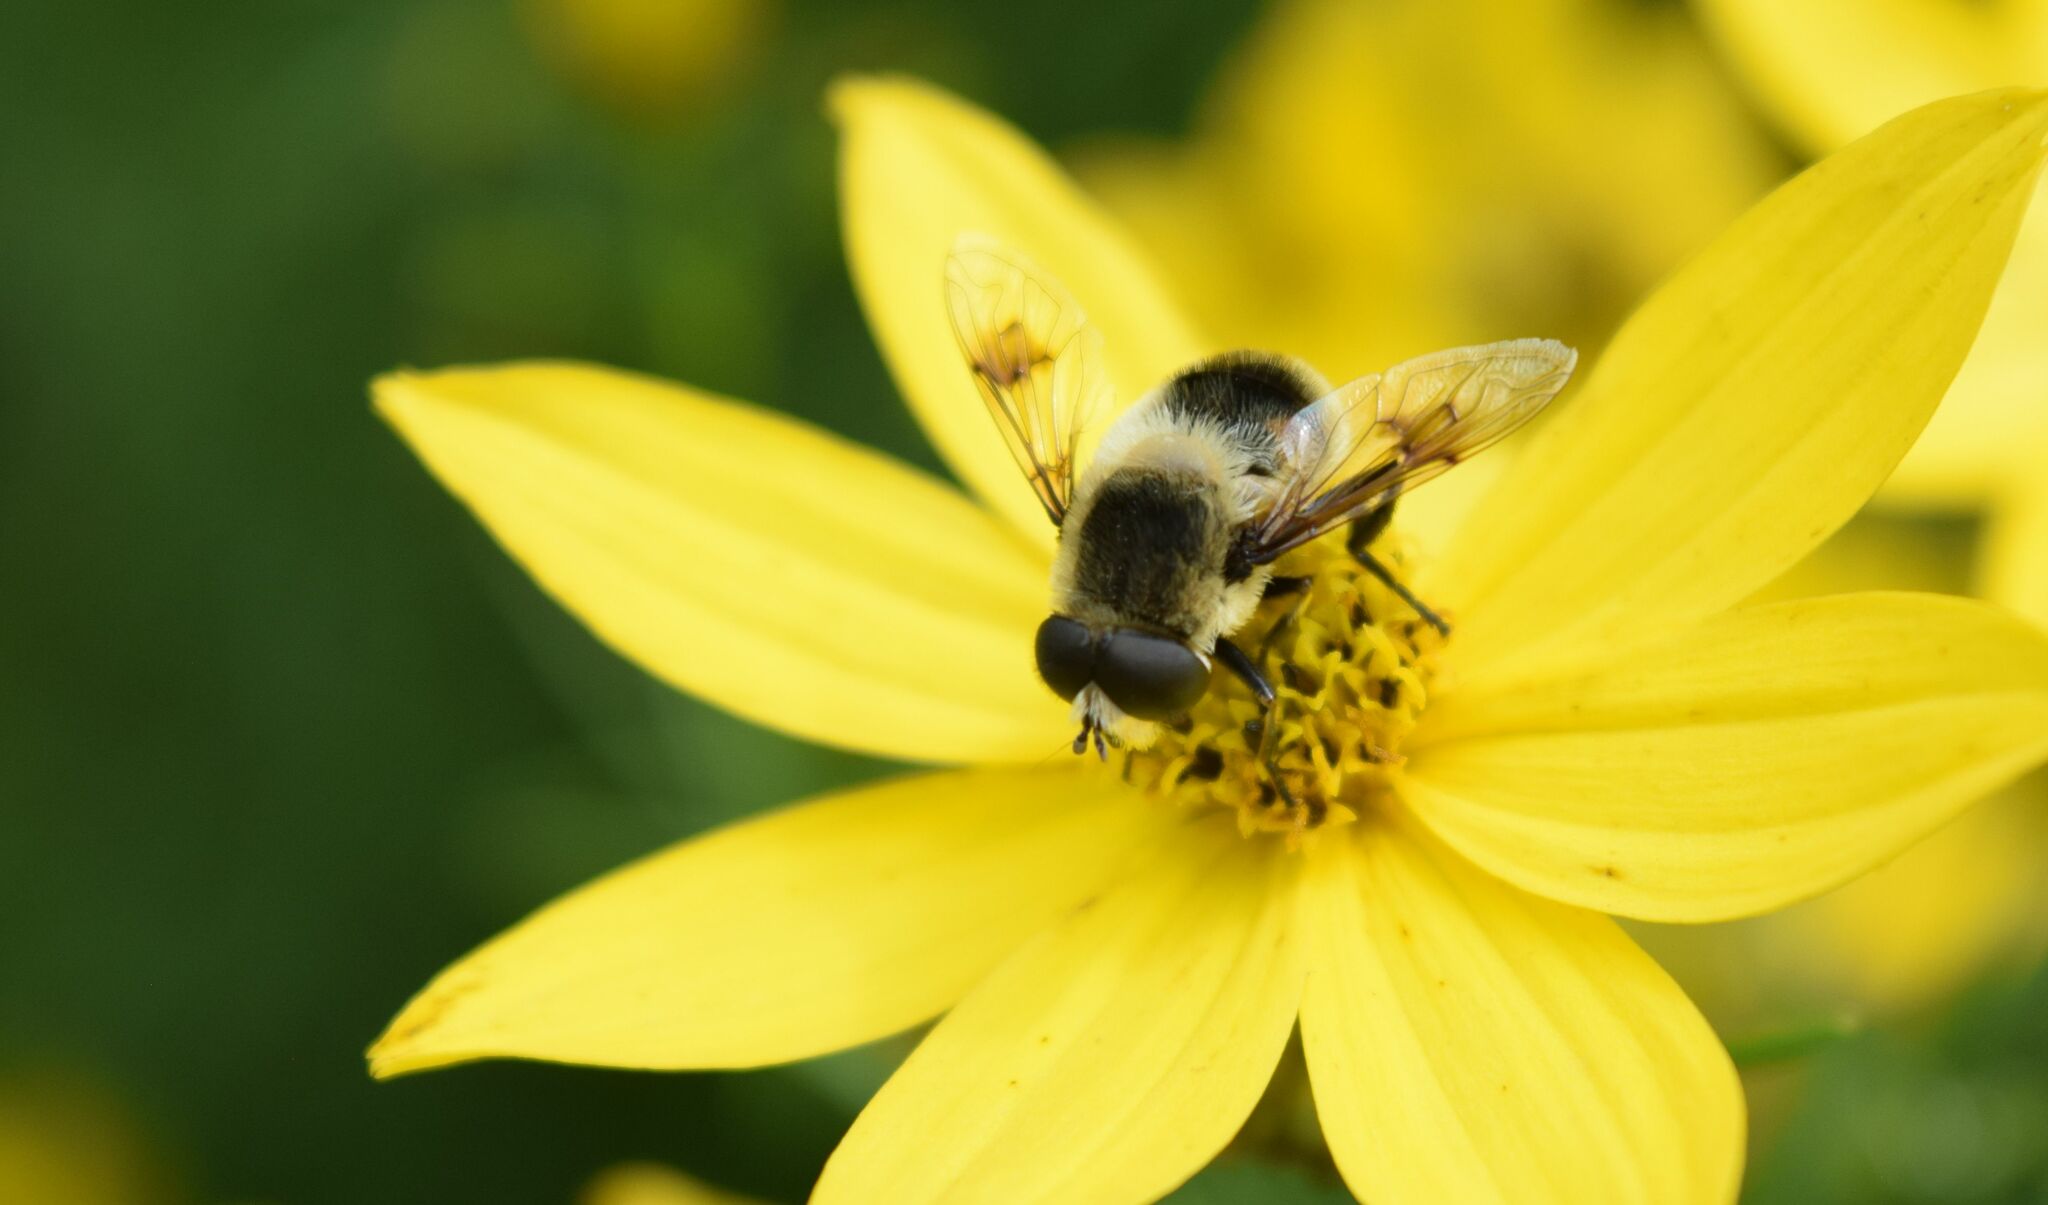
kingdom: Animalia
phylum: Arthropoda
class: Insecta
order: Diptera
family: Syrphidae
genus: Eristalis
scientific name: Eristalis anthophorina
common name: Orange-spotted drone fly
